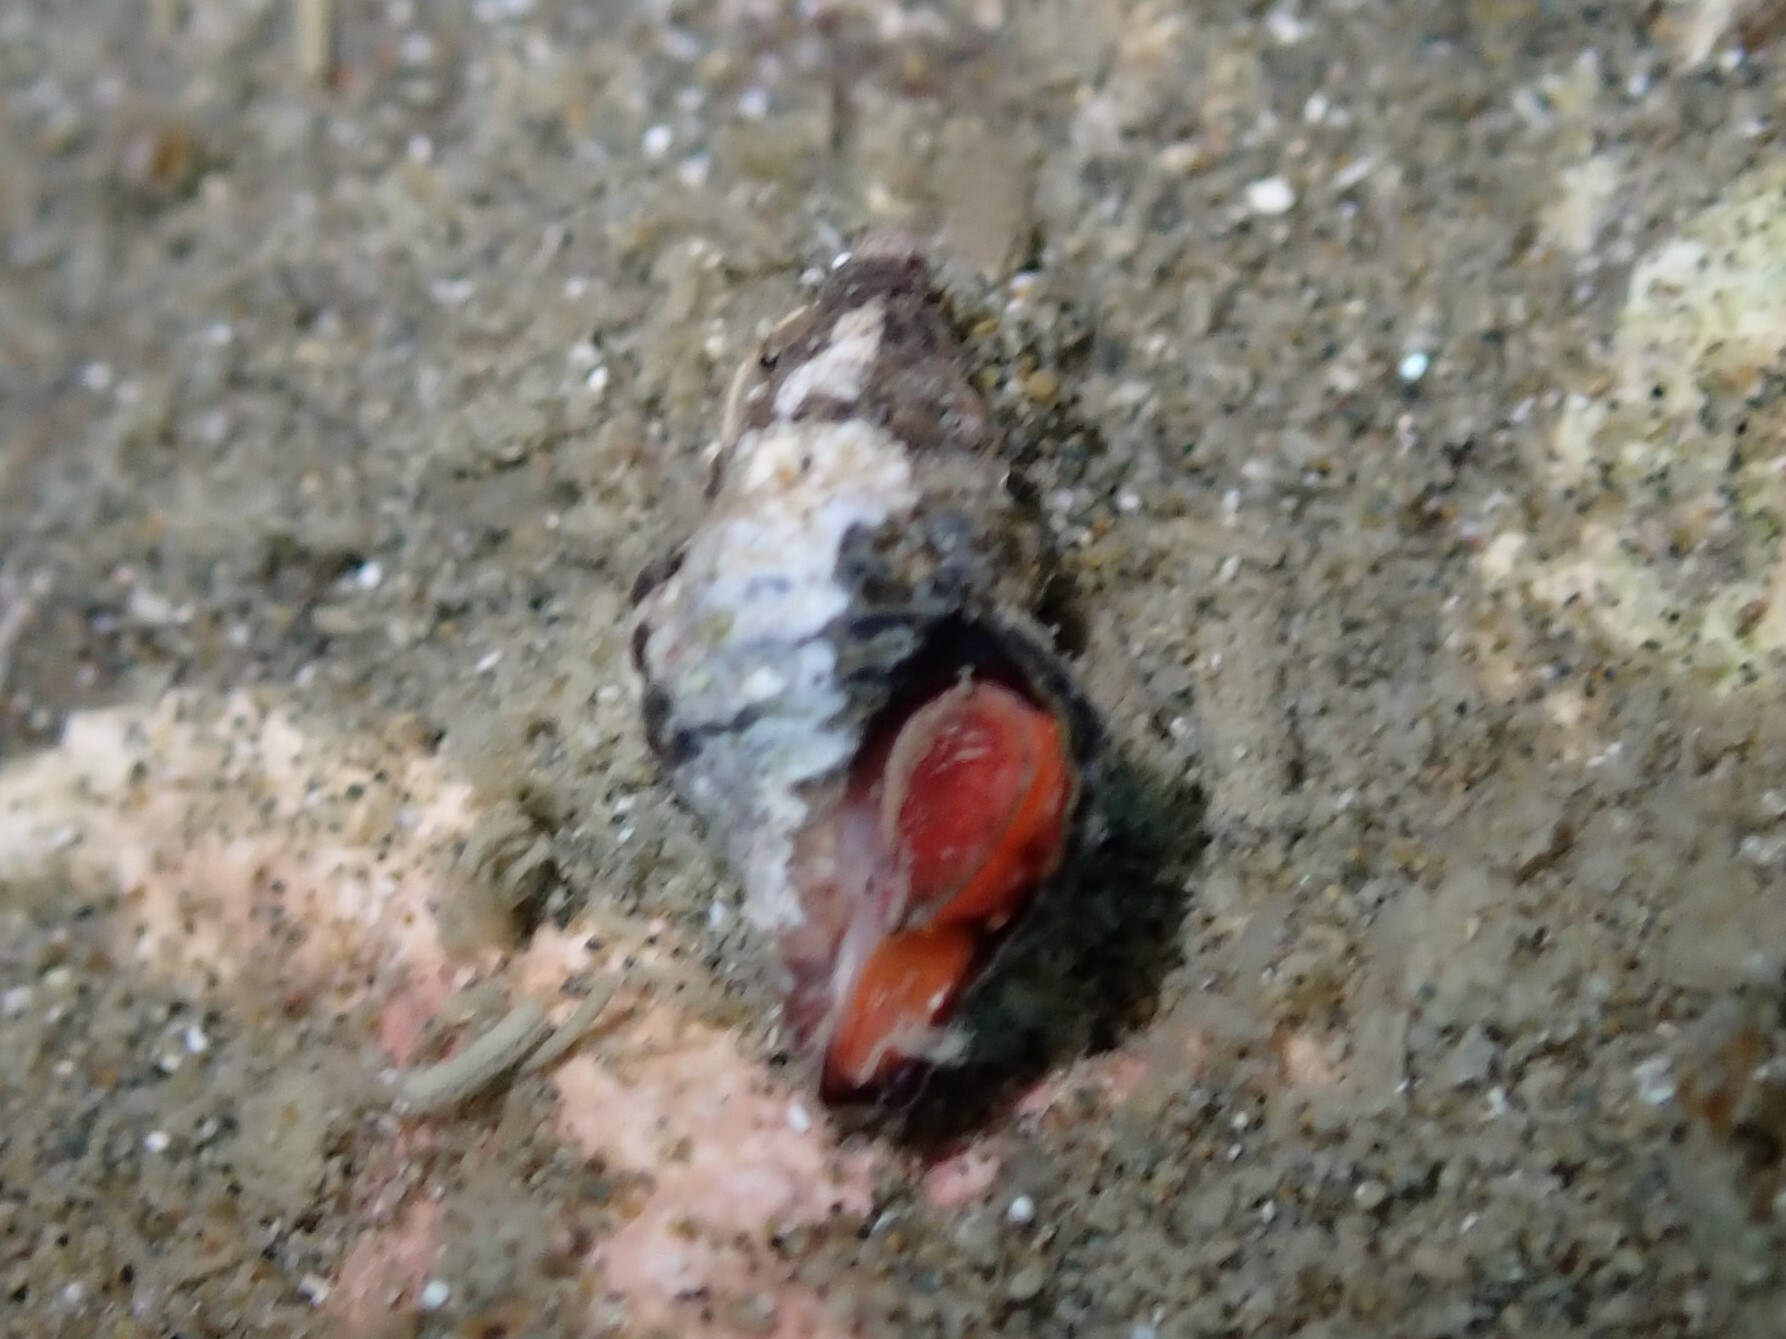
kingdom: Animalia
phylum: Mollusca
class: Gastropoda
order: Neogastropoda
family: Fasciolariidae
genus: Taron
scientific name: Taron dubius
